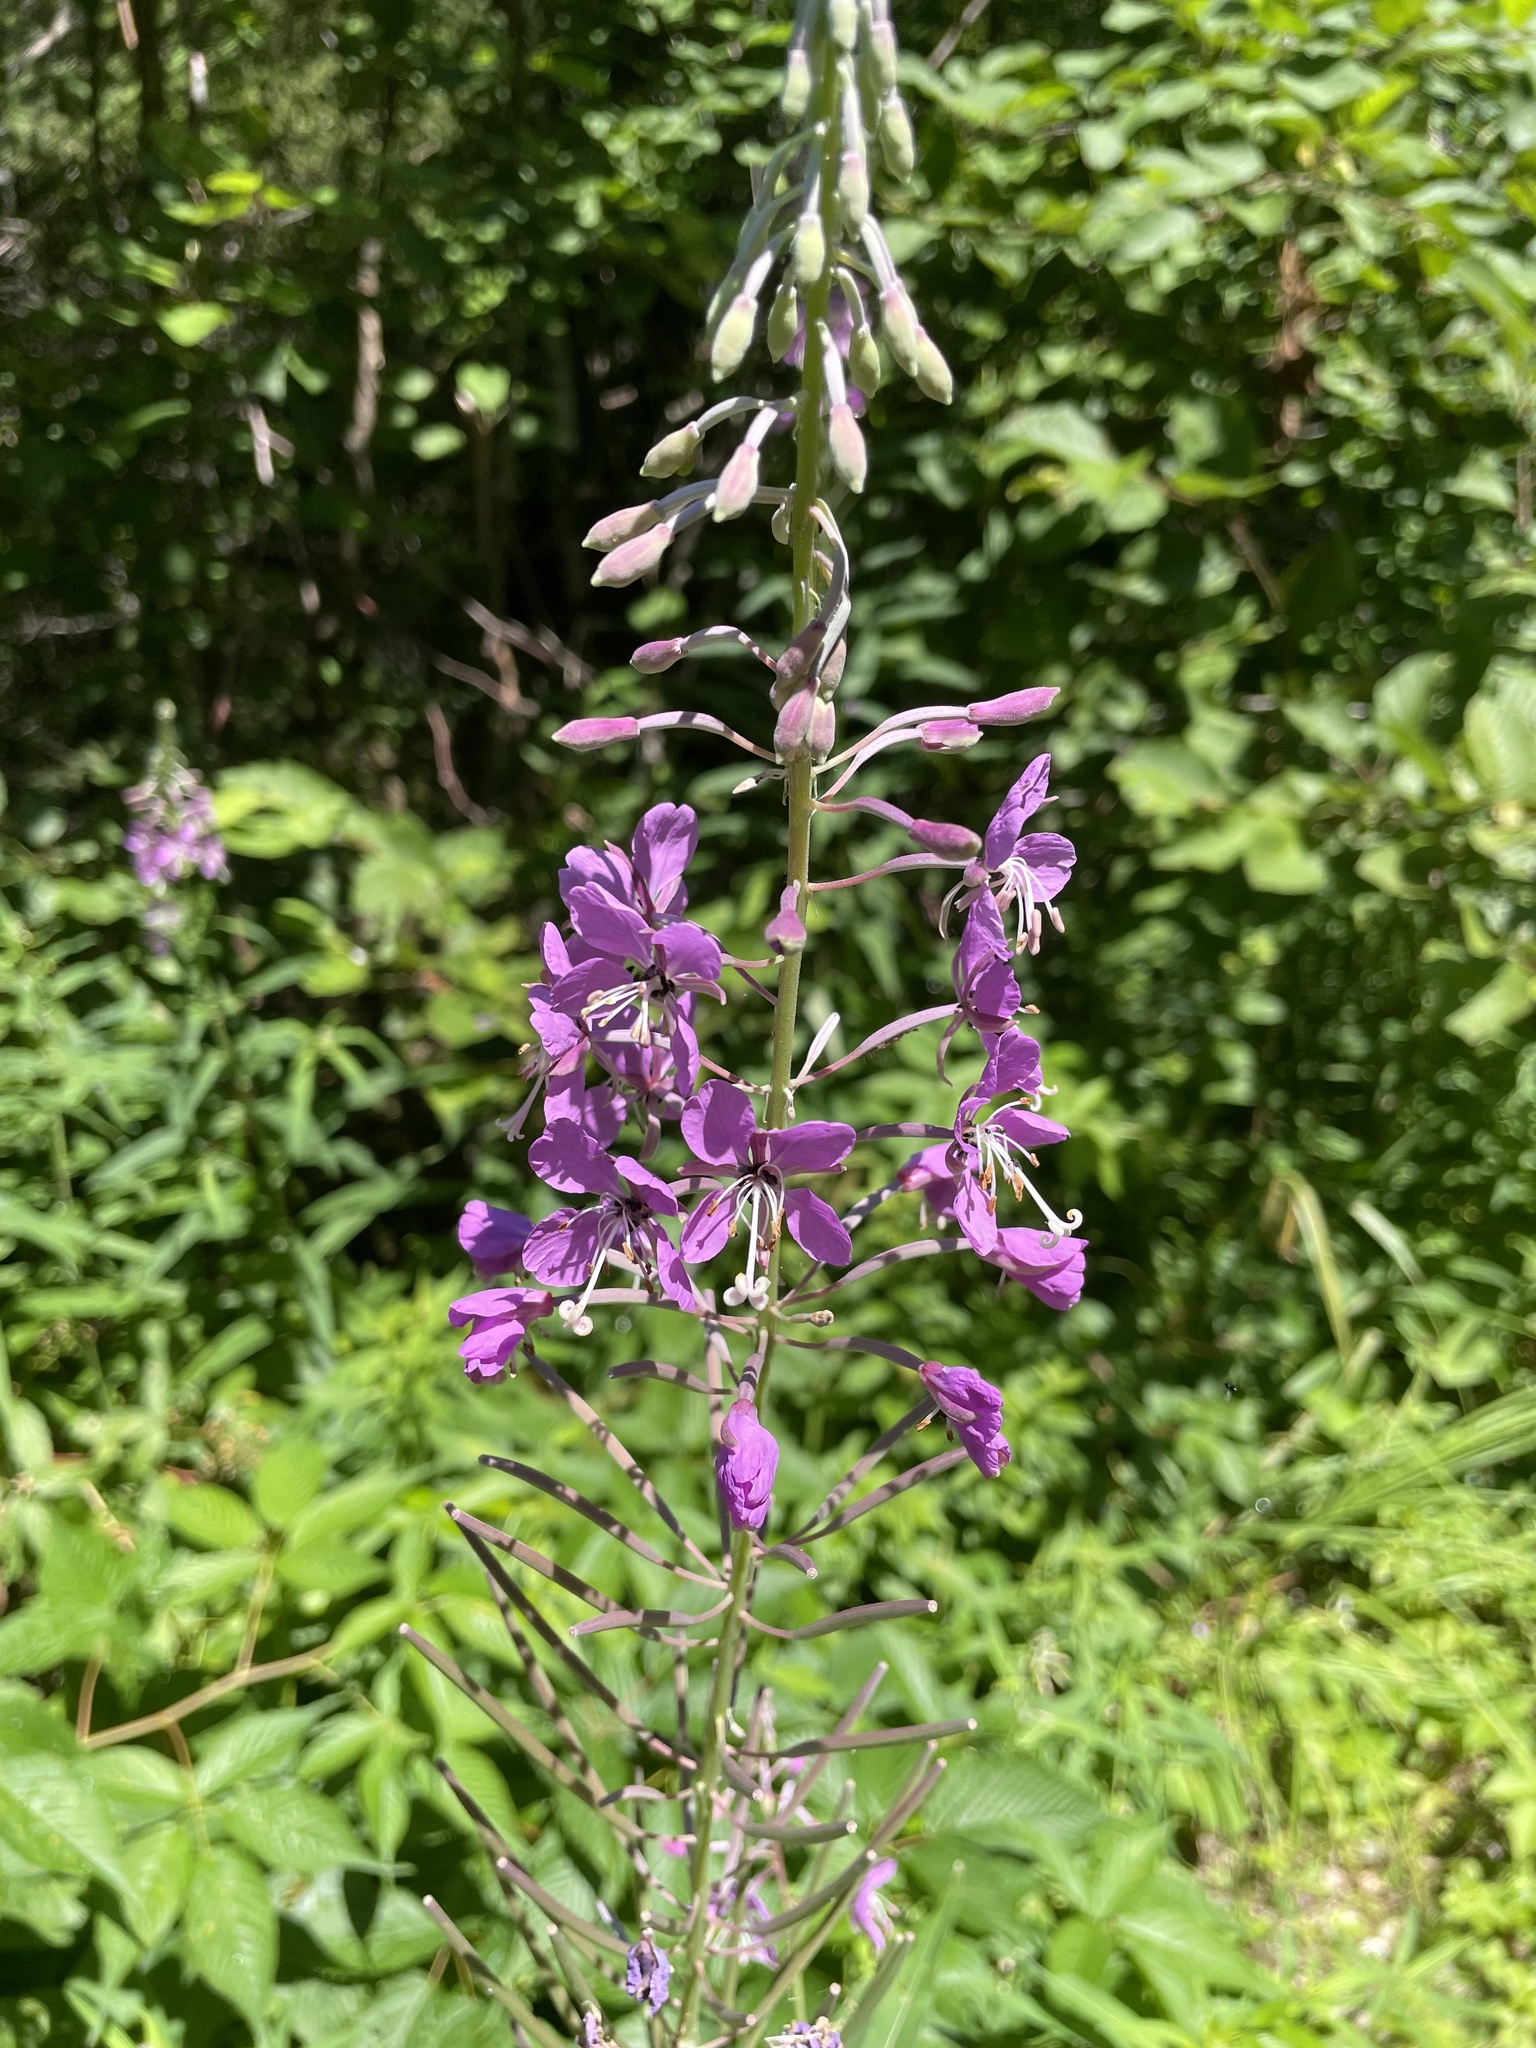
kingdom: Plantae
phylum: Tracheophyta
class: Magnoliopsida
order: Myrtales
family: Onagraceae
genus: Chamaenerion
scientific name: Chamaenerion angustifolium
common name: Fireweed
